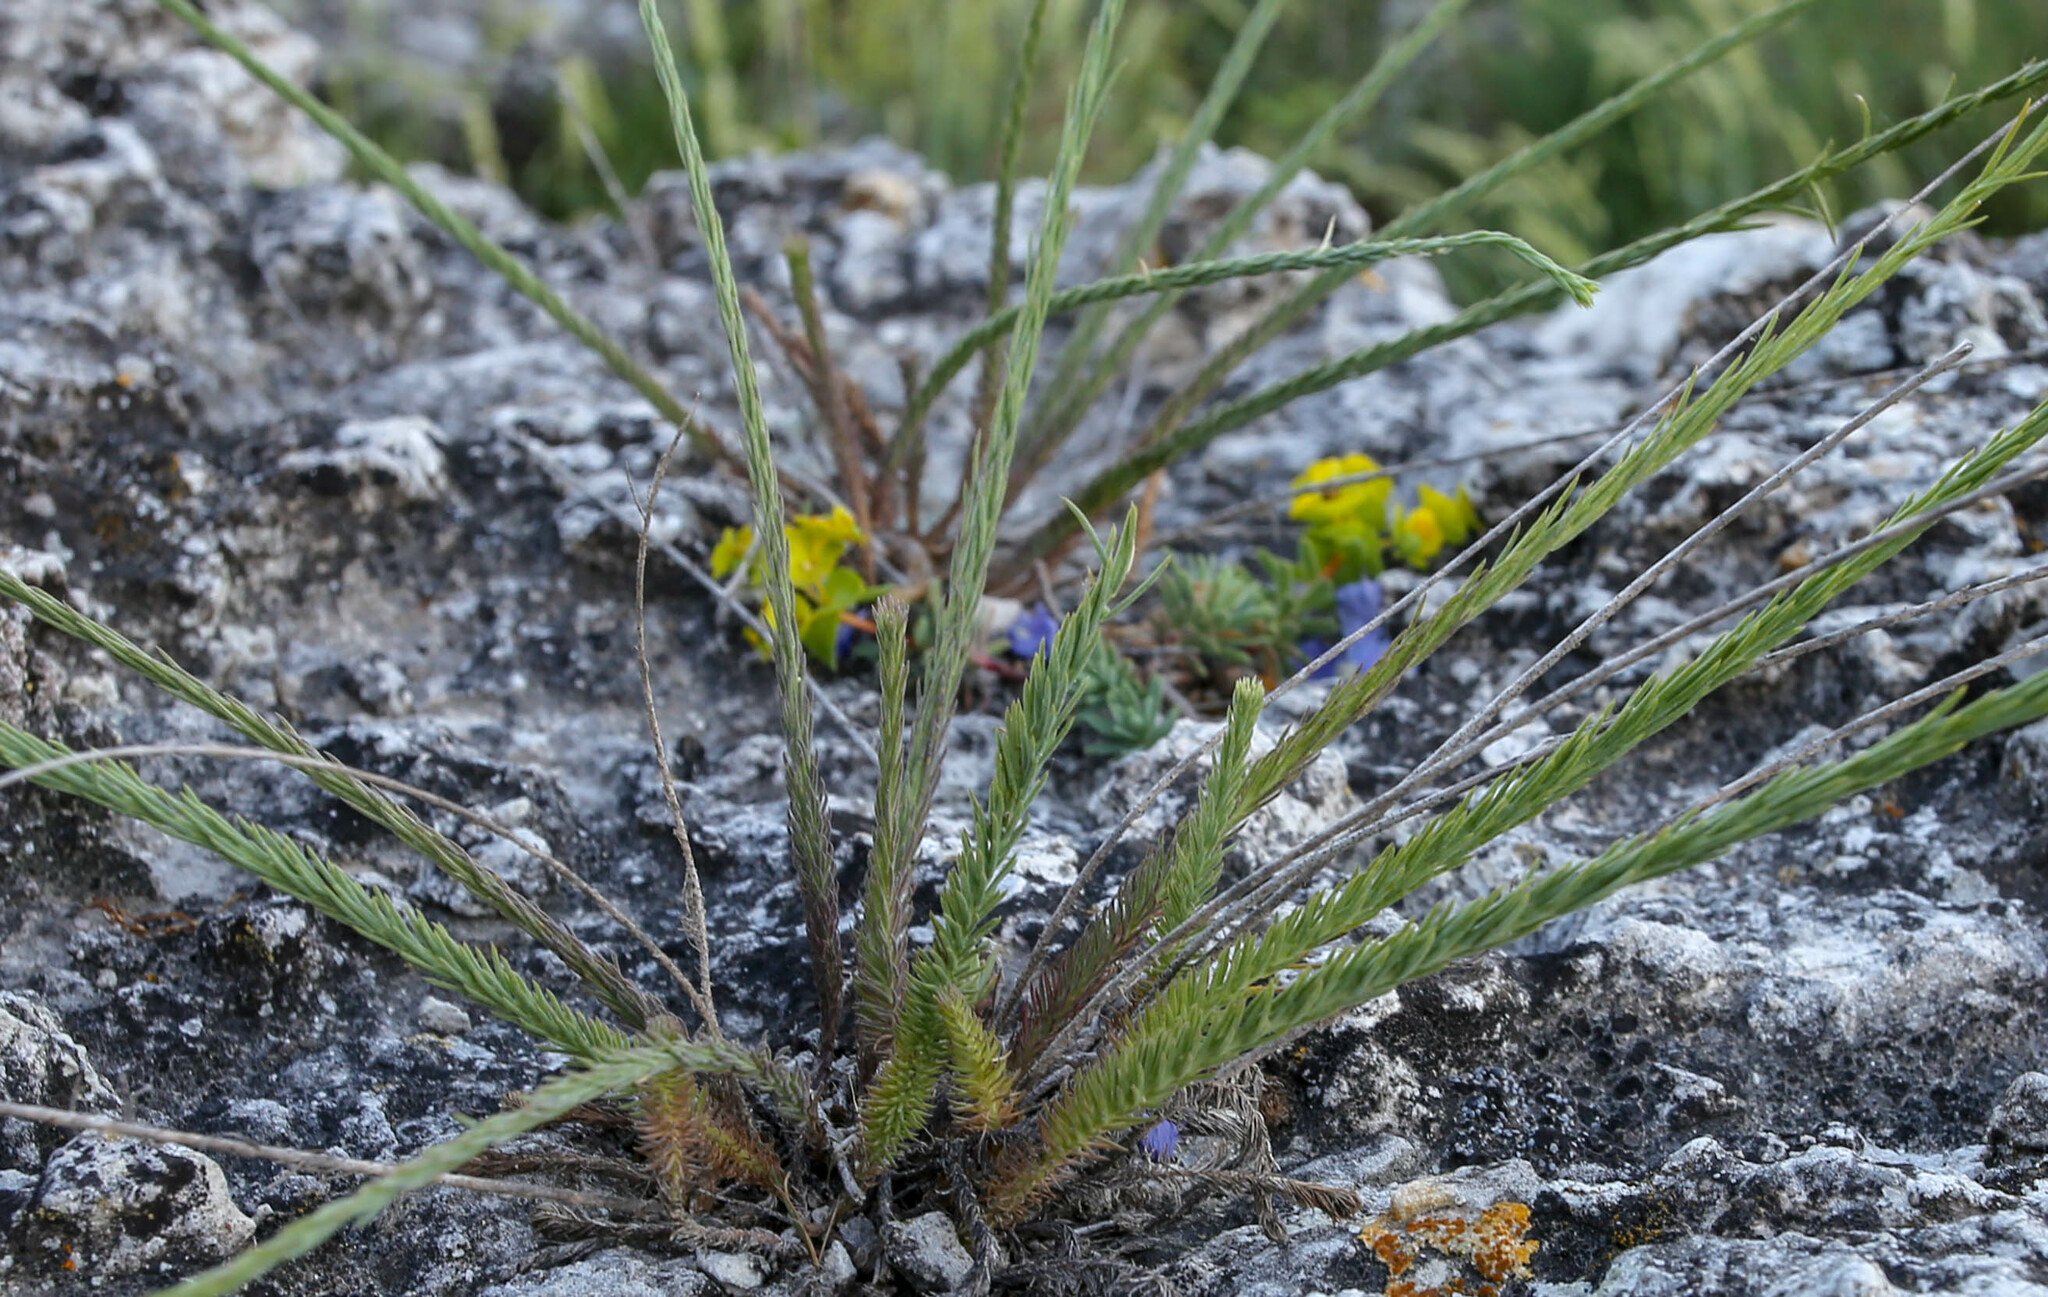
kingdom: Plantae
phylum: Tracheophyta
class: Magnoliopsida
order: Malpighiales
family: Linaceae
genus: Linum
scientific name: Linum austriacum
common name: Austrian flax
